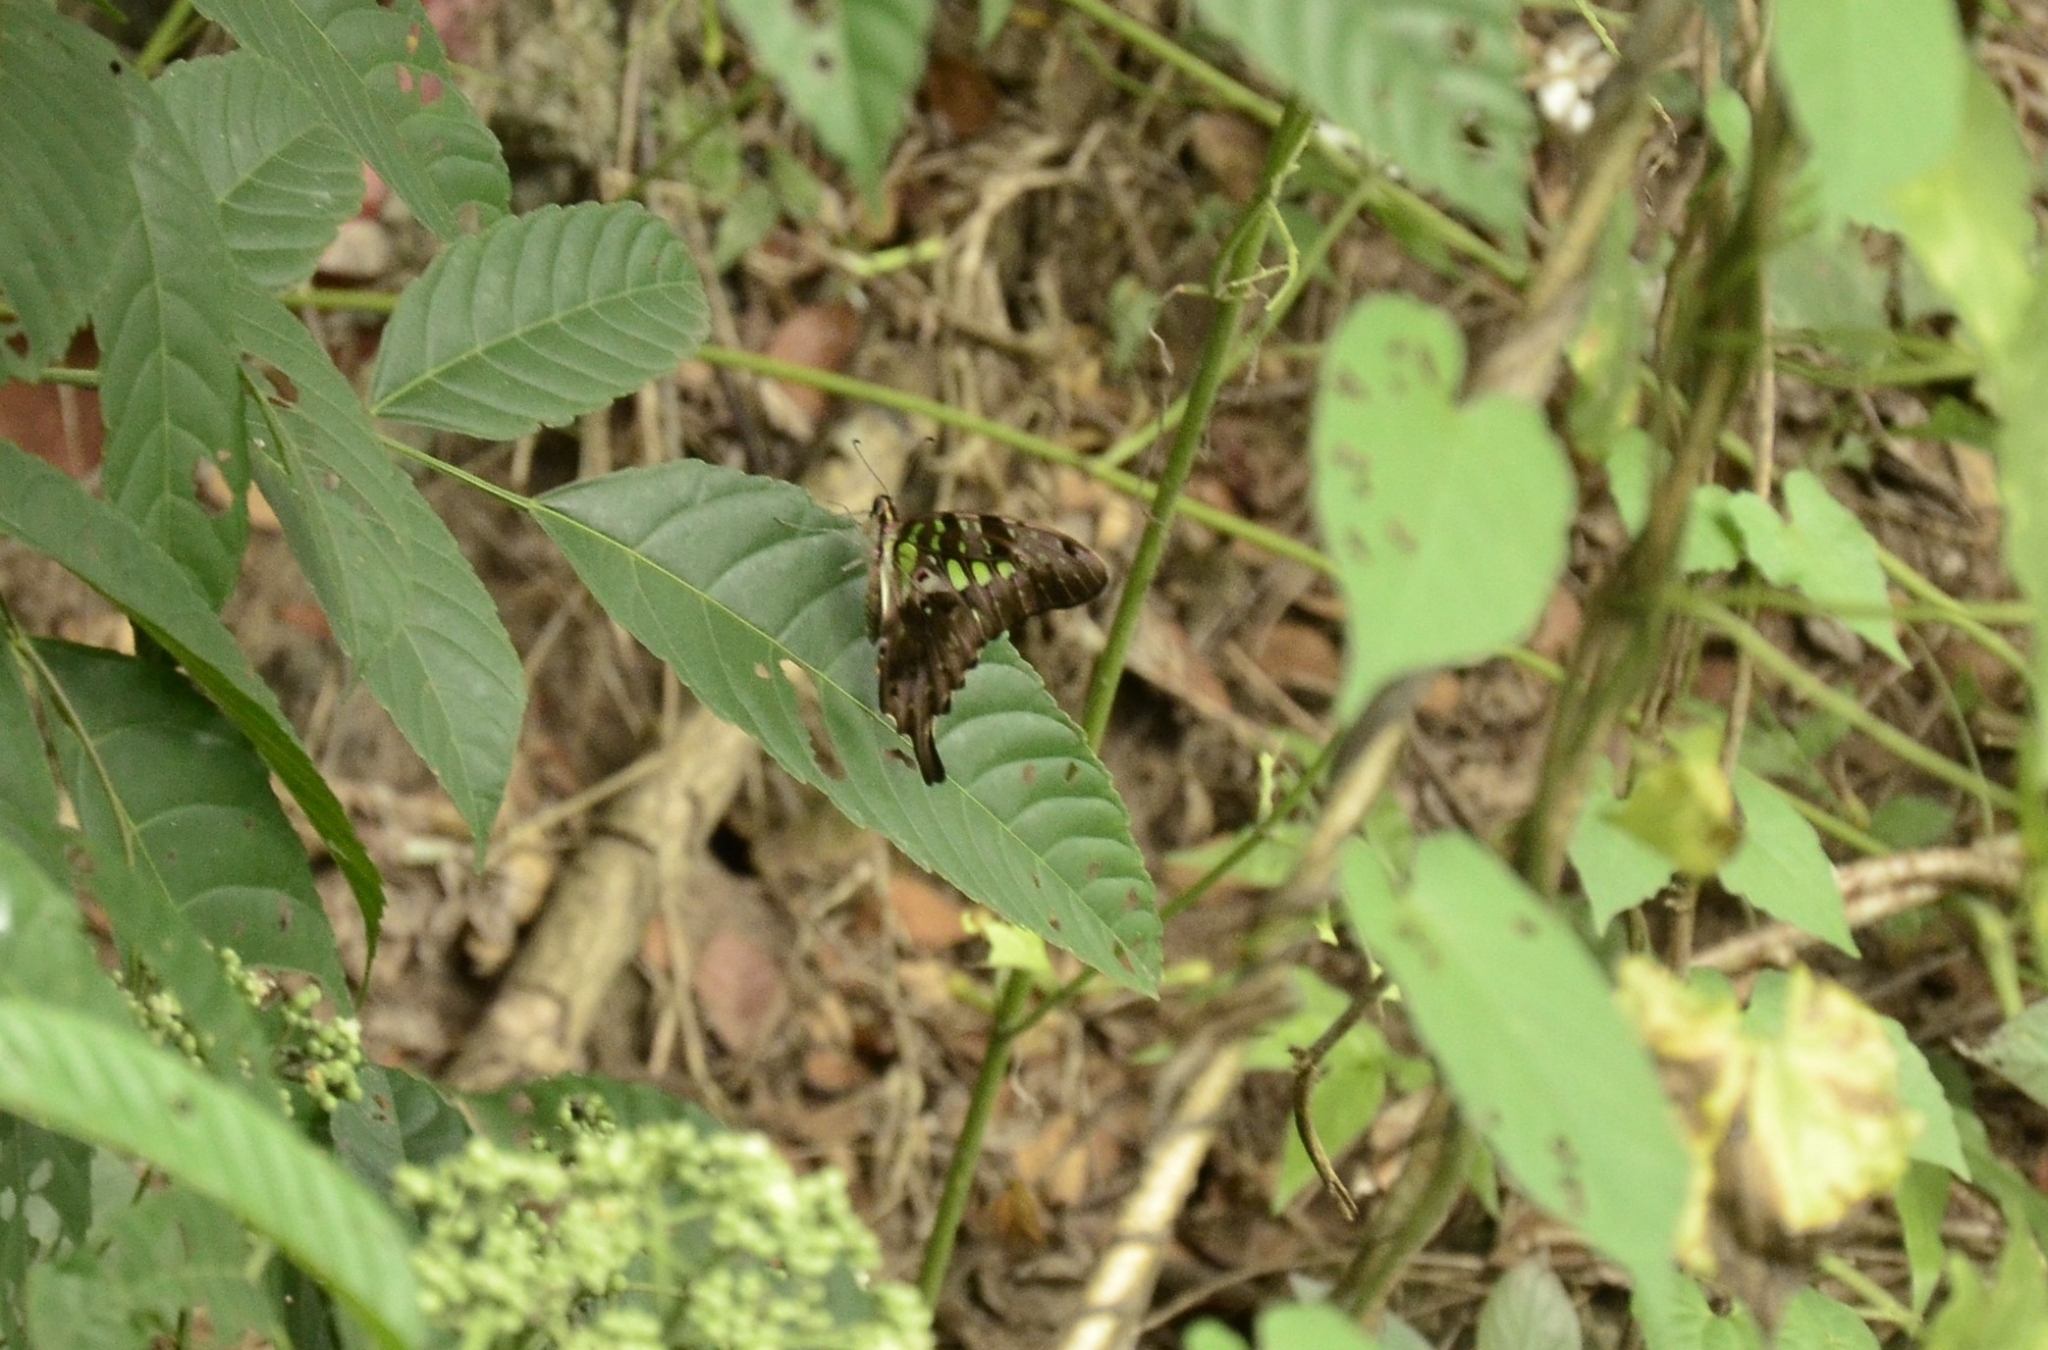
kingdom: Animalia
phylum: Arthropoda
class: Insecta
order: Lepidoptera
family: Papilionidae
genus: Graphium
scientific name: Graphium agamemnon
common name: Tailed jay
